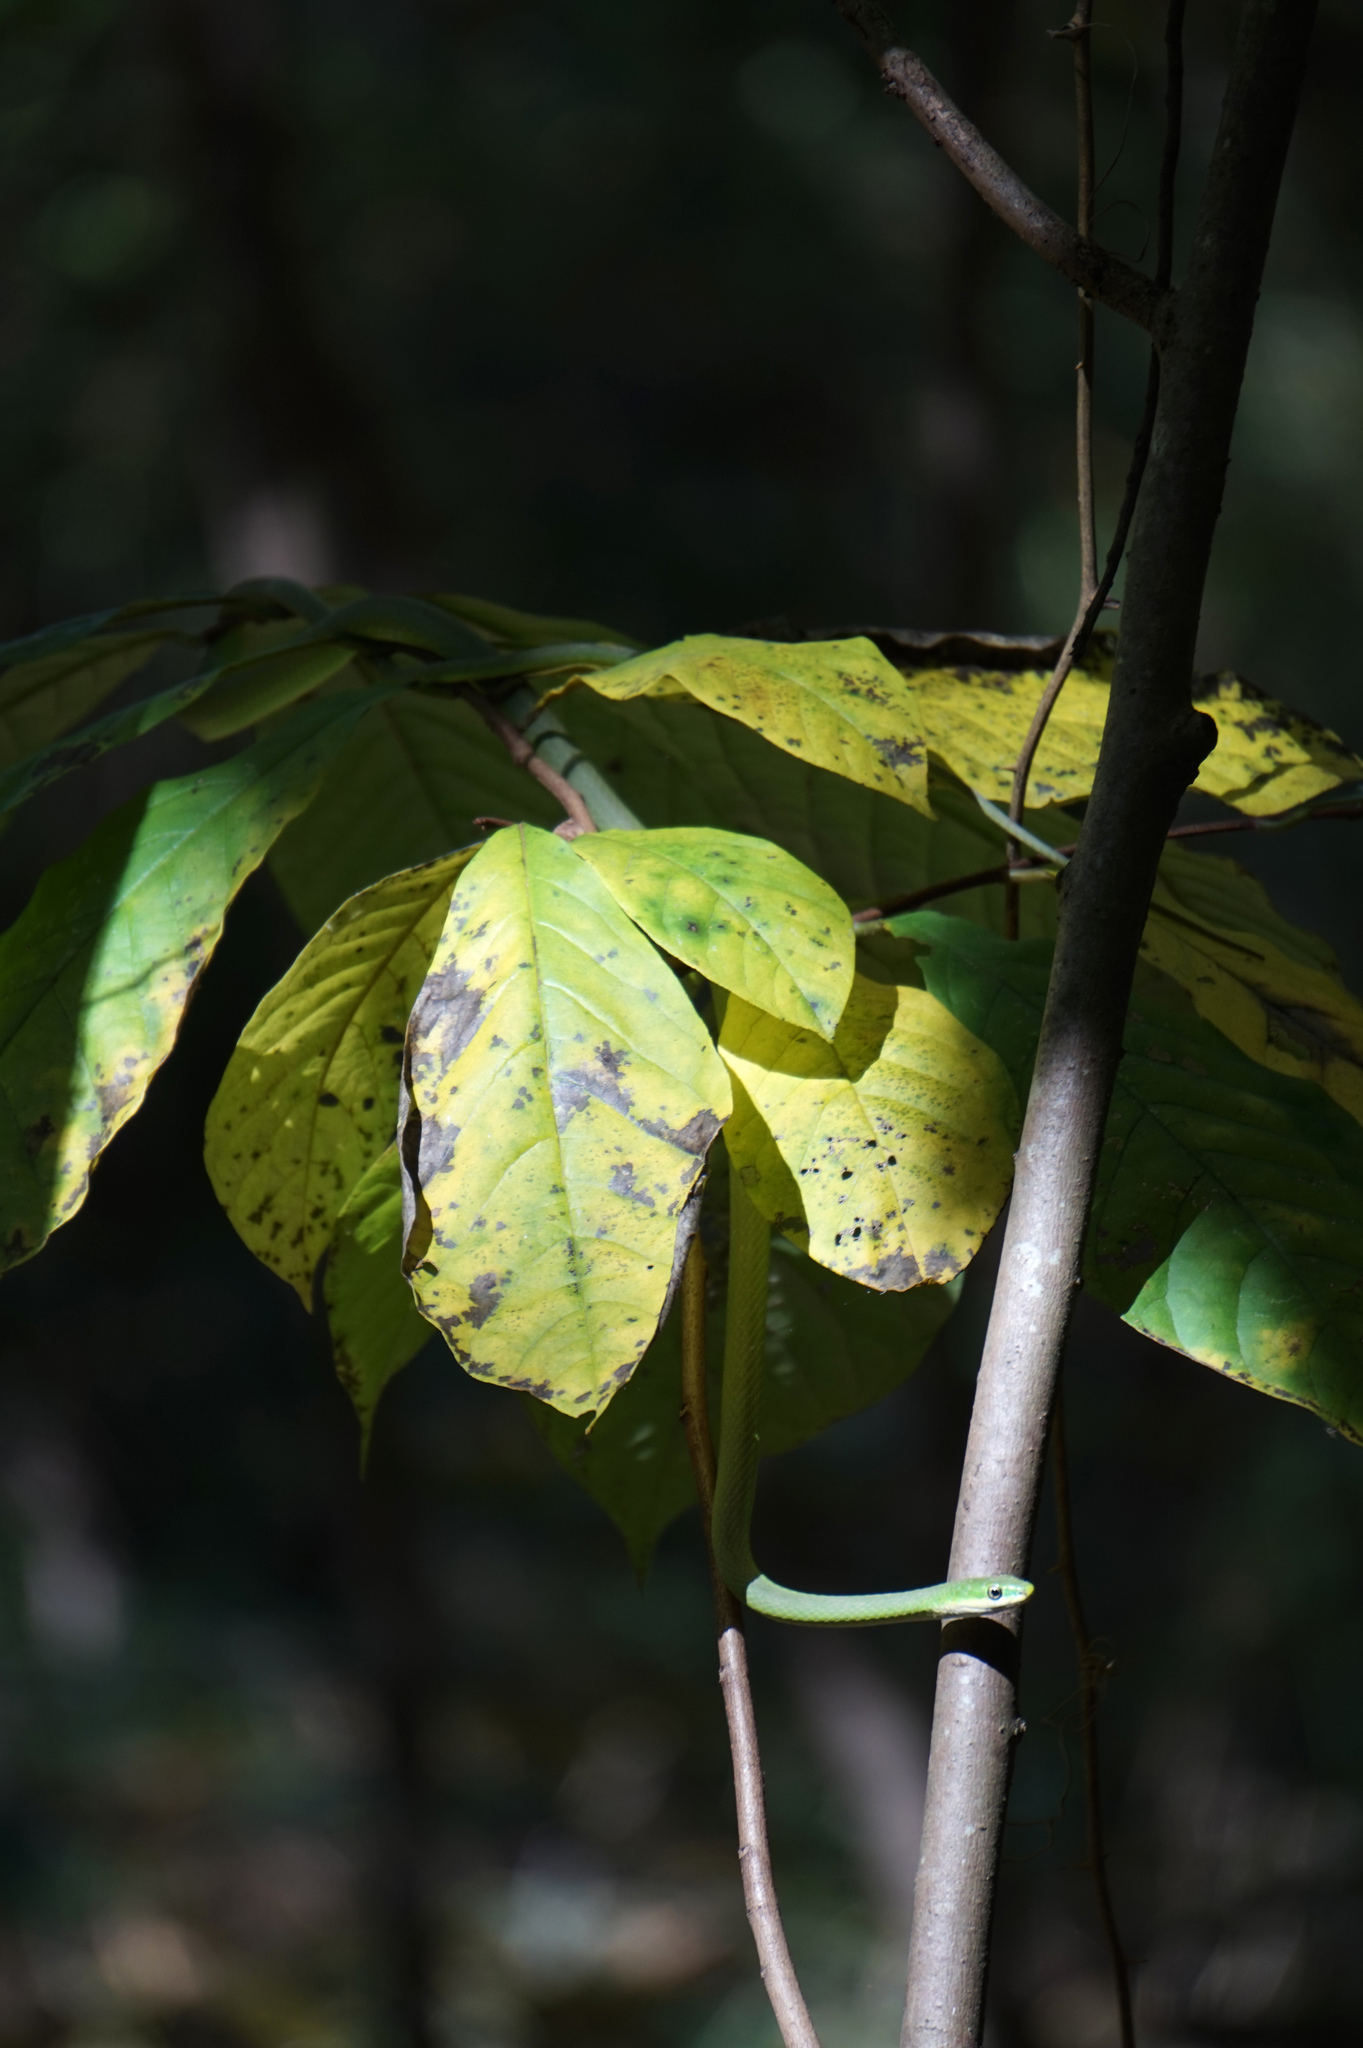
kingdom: Animalia
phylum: Chordata
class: Squamata
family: Colubridae
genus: Opheodrys
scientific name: Opheodrys aestivus
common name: Rough greensnake
